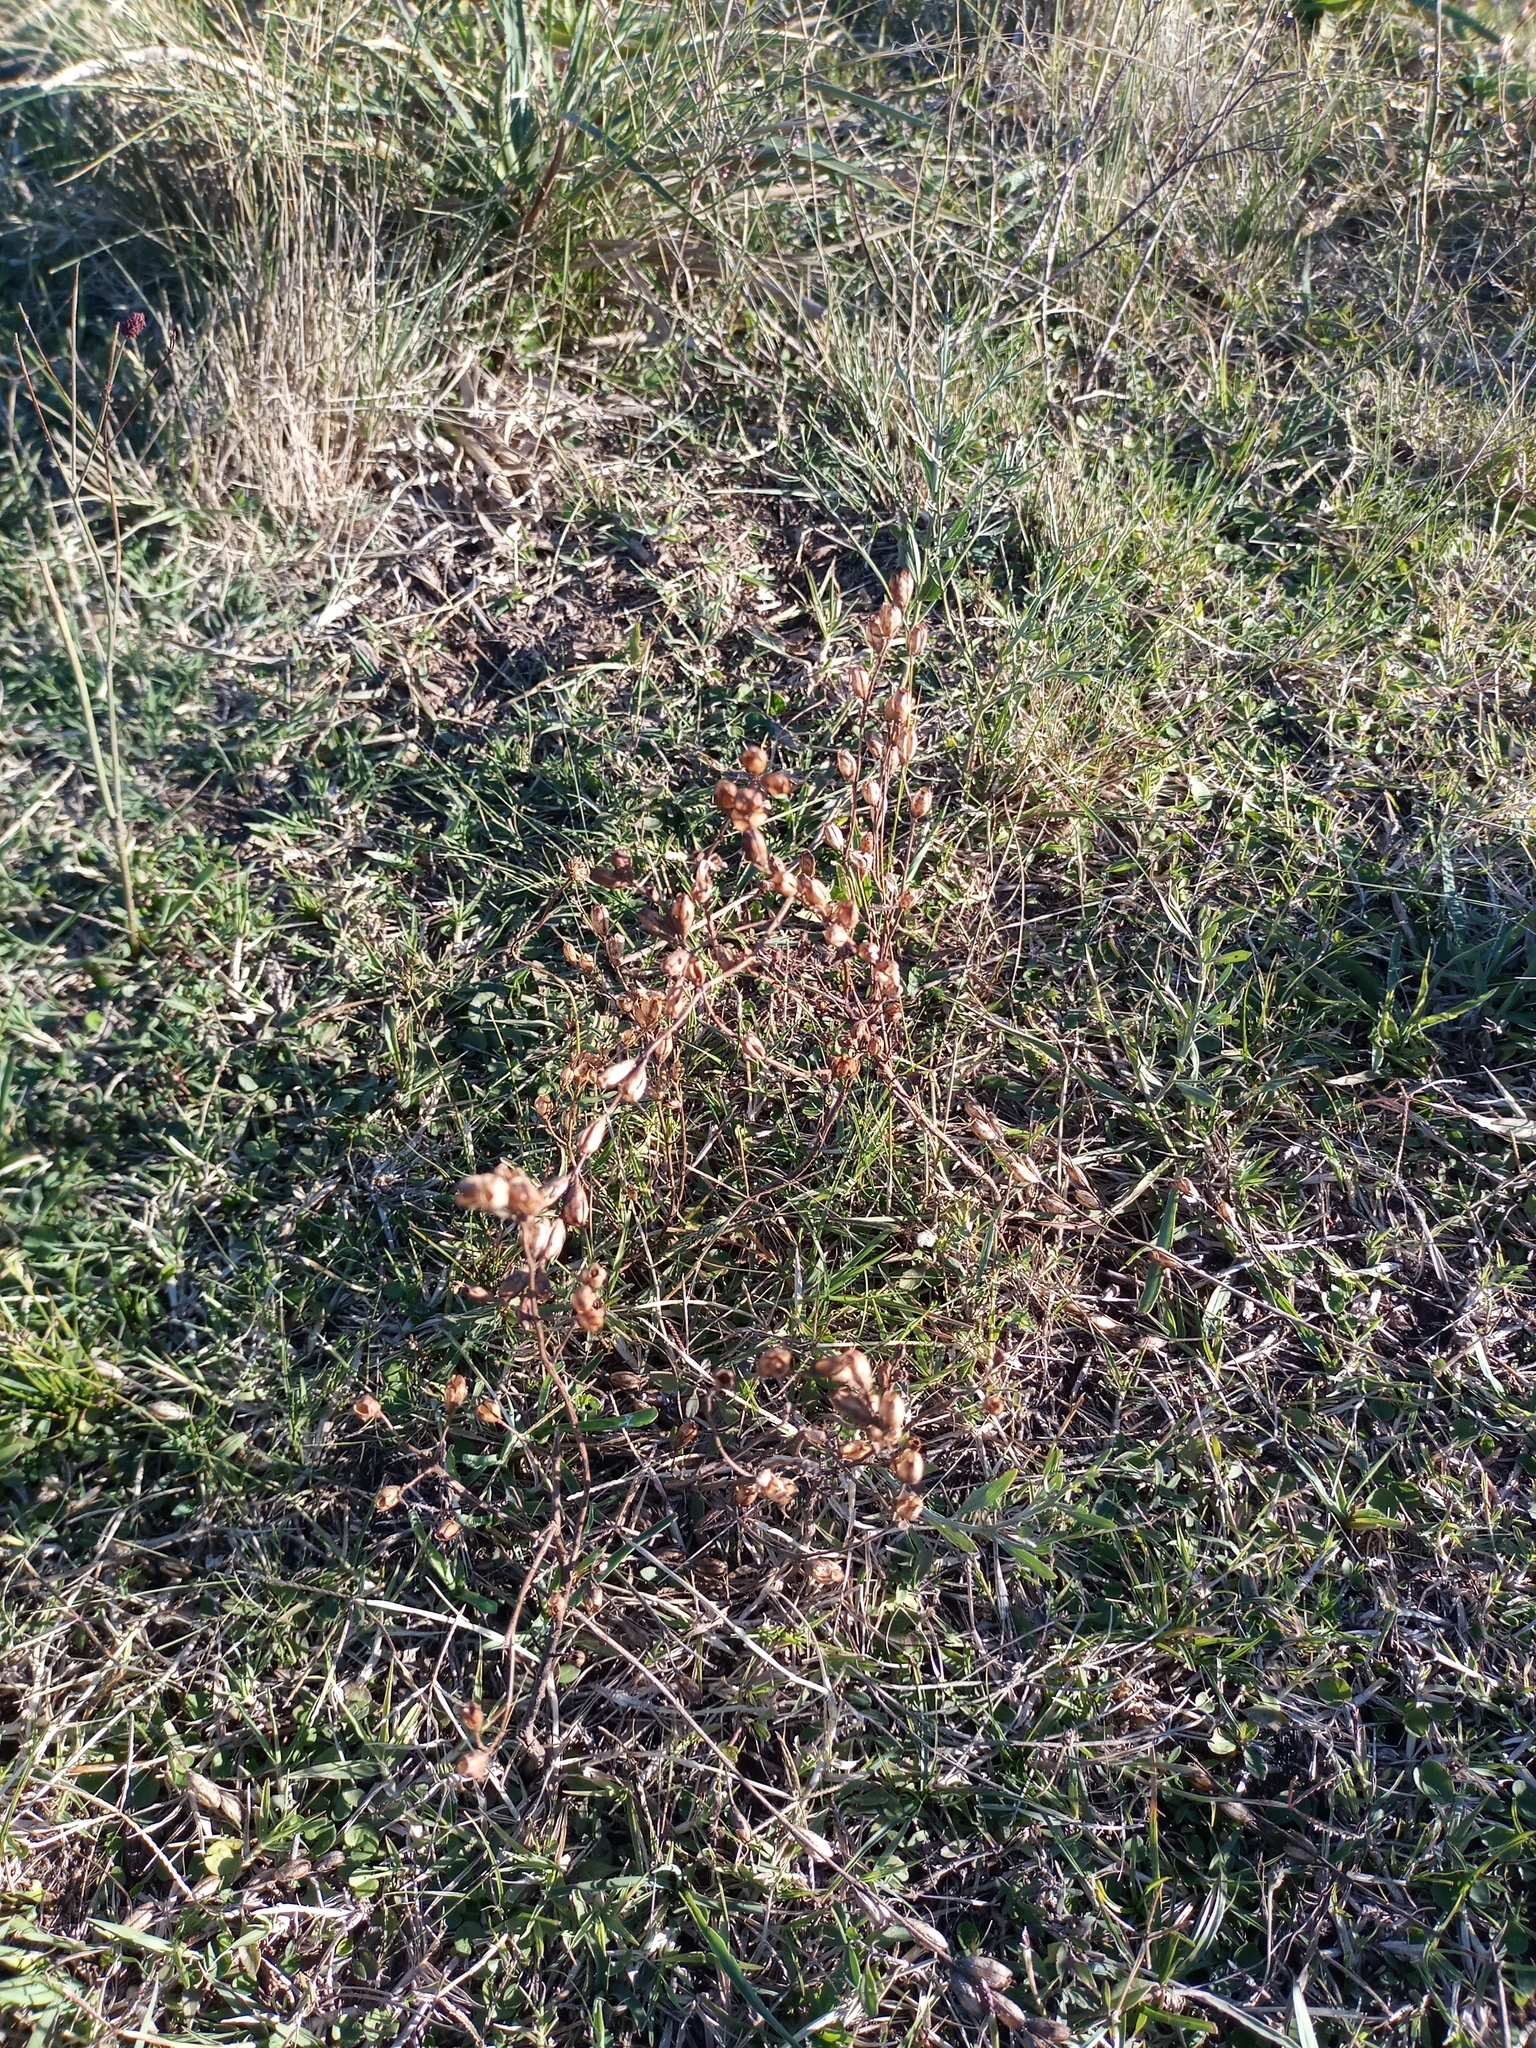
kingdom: Plantae
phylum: Tracheophyta
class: Magnoliopsida
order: Lamiales
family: Orobanchaceae
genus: Agalinis
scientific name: Agalinis communis
